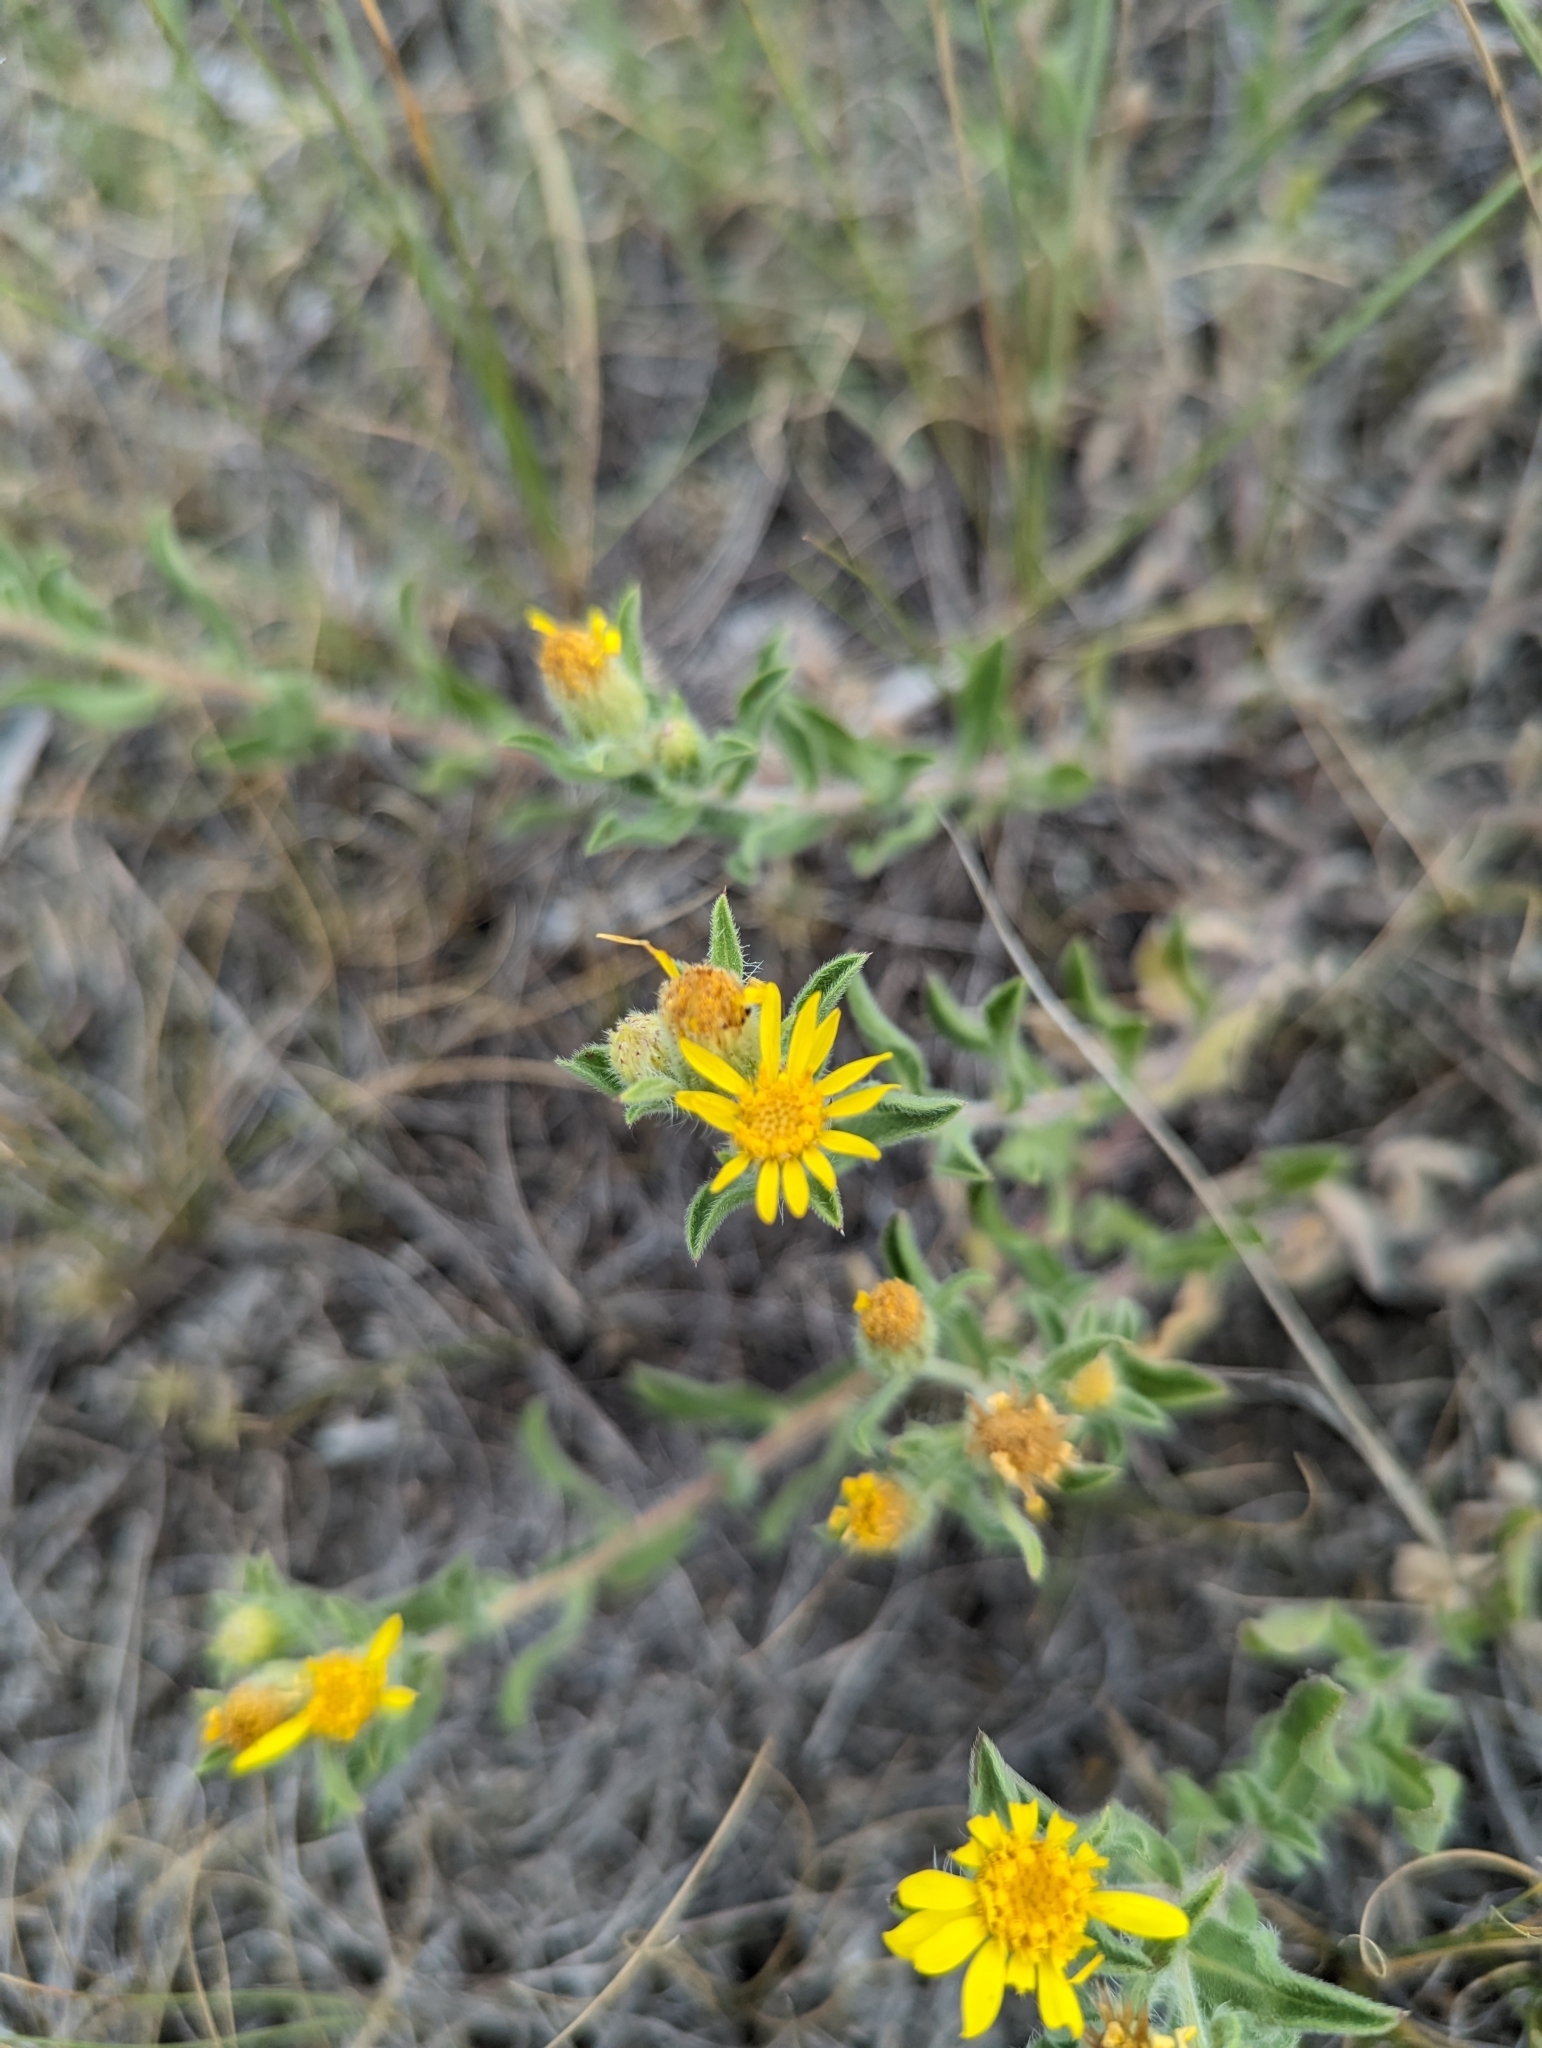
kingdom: Plantae
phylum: Tracheophyta
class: Magnoliopsida
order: Asterales
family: Asteraceae
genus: Heterotheca
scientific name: Heterotheca villosa
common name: Hairy false goldenaster
